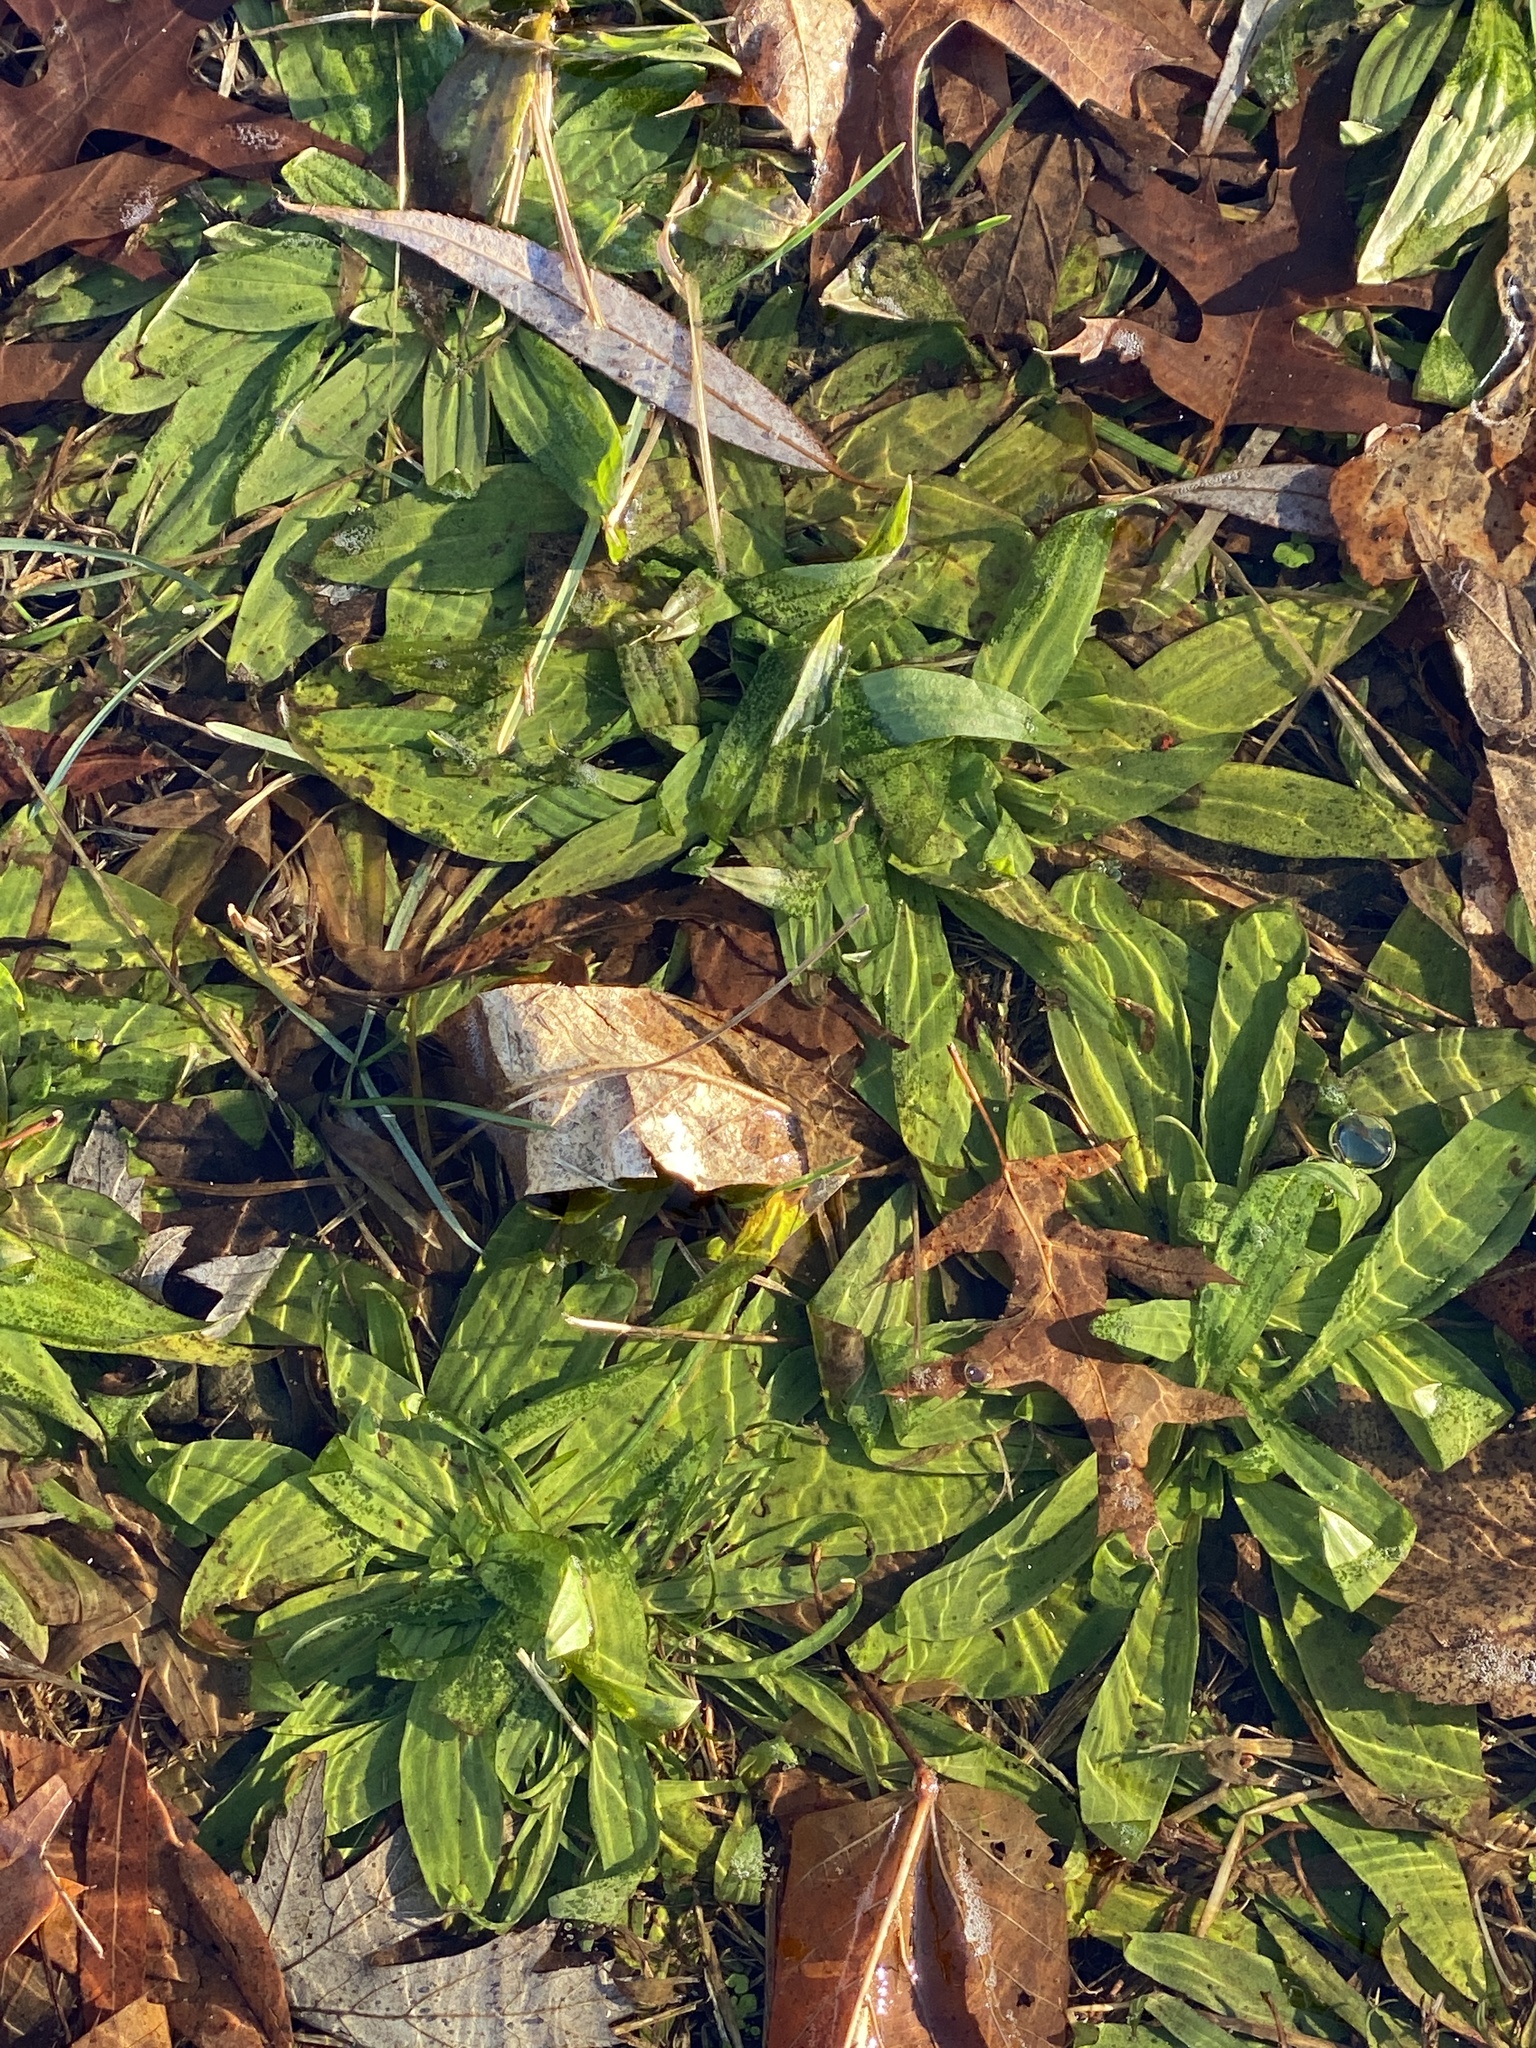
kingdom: Plantae
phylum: Tracheophyta
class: Magnoliopsida
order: Lamiales
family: Plantaginaceae
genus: Plantago
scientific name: Plantago lanceolata
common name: Ribwort plantain
